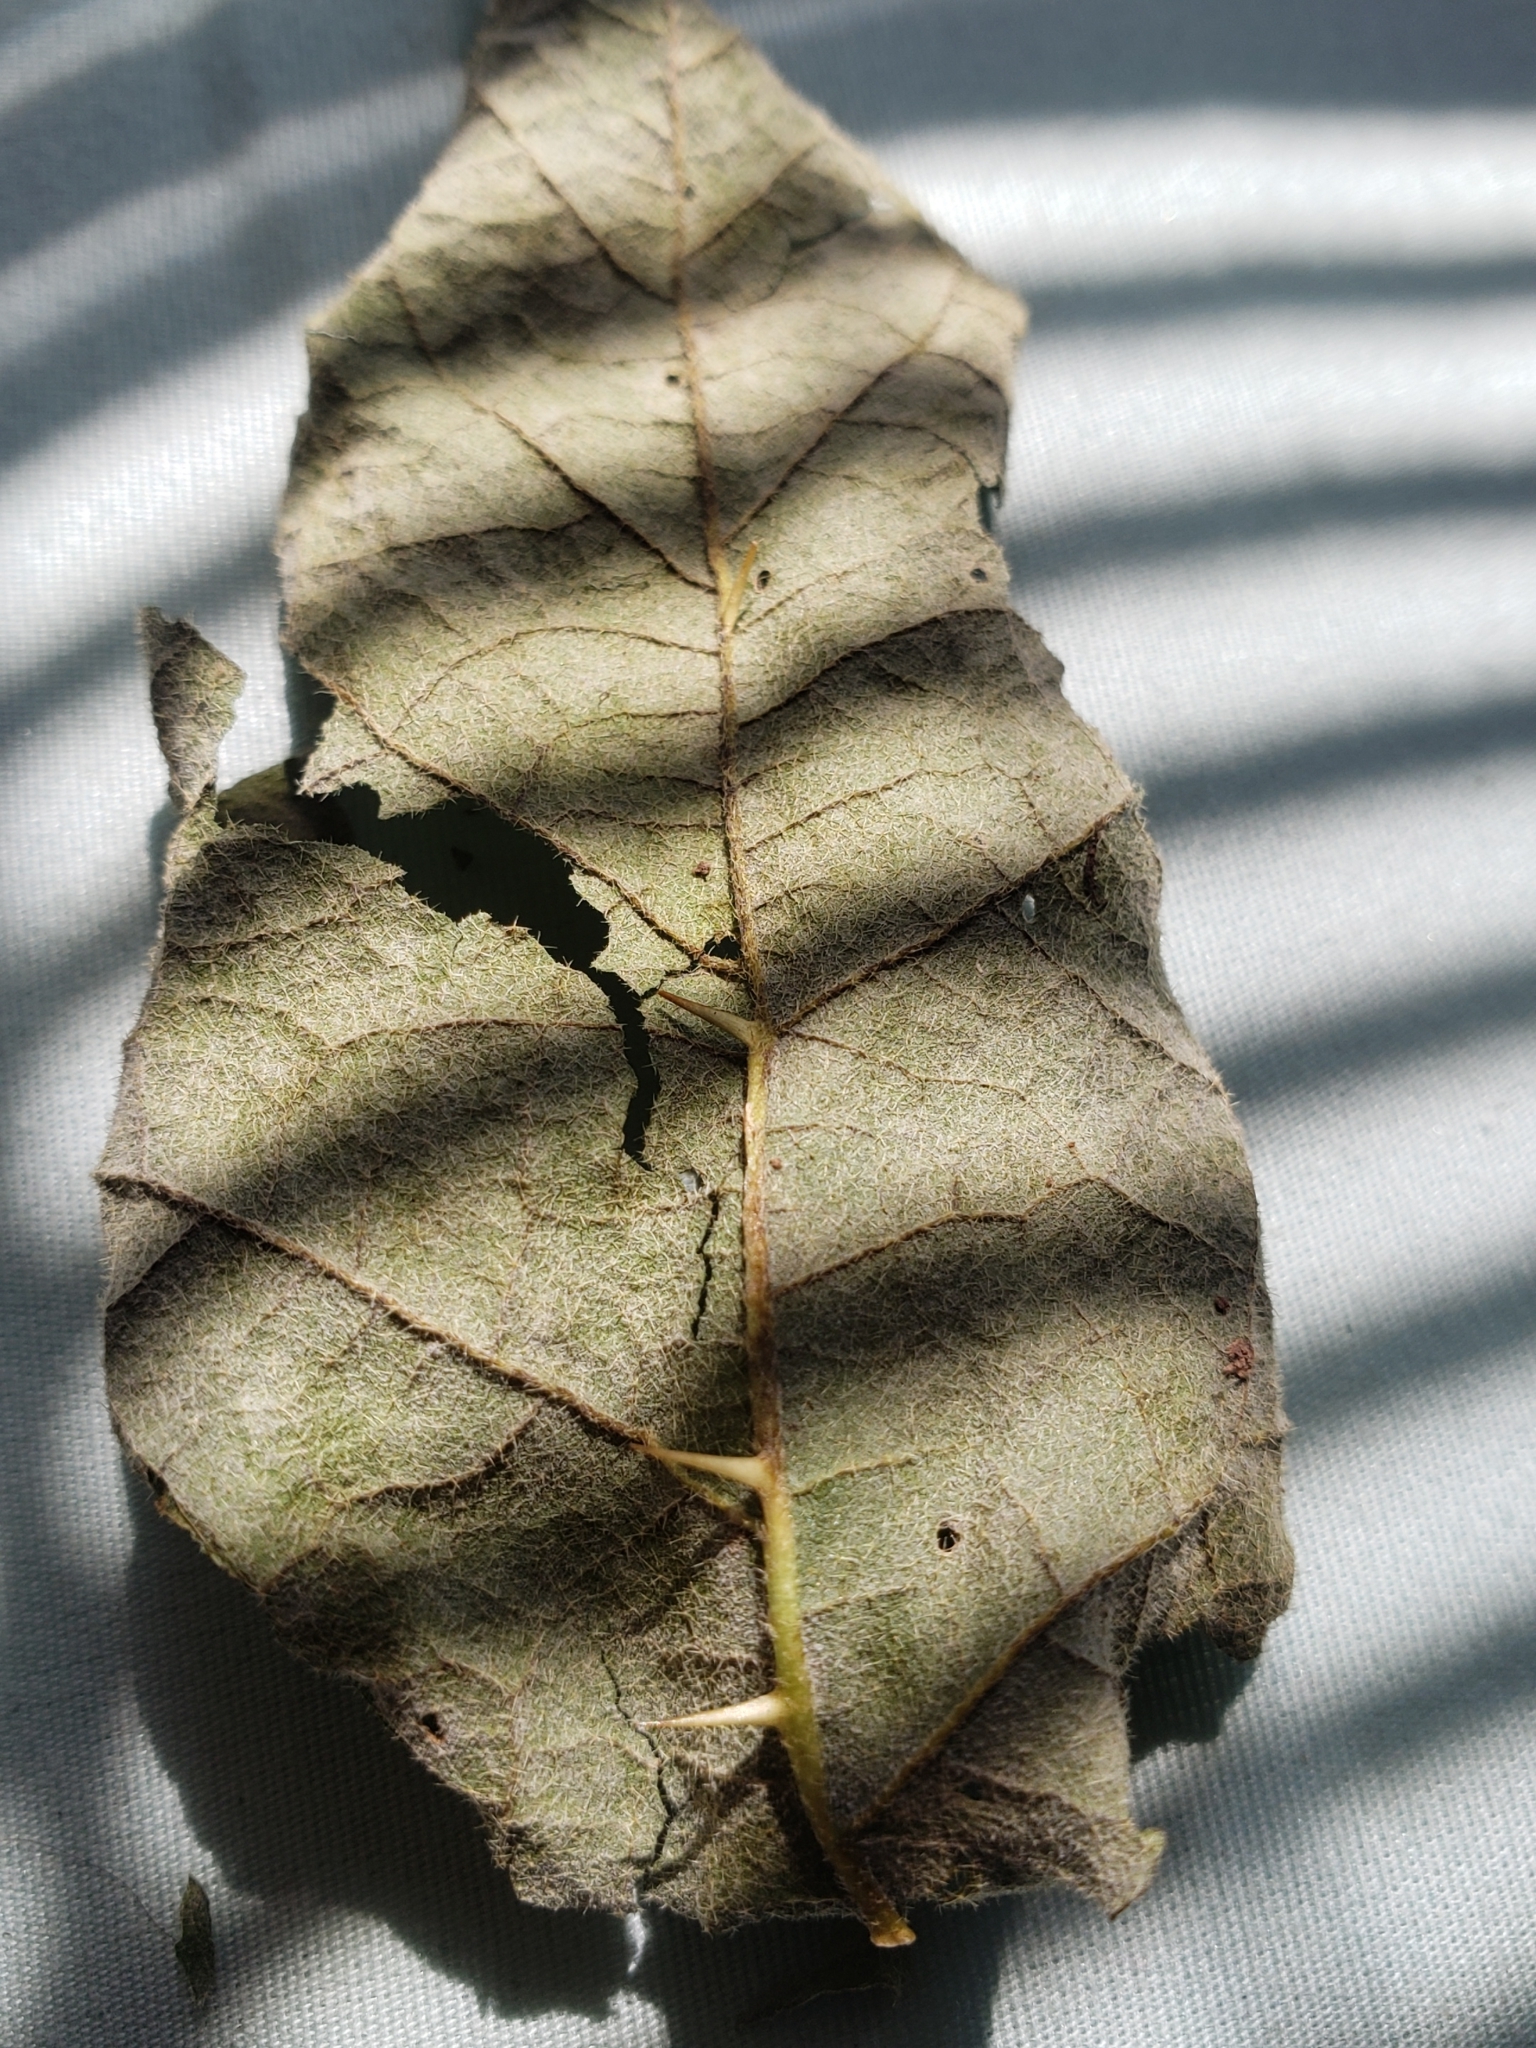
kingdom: Fungi
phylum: Ascomycota
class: Leotiomycetes
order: Helotiales
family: Erysiphaceae
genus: Podosphaera
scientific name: Podosphaera solanacearum
